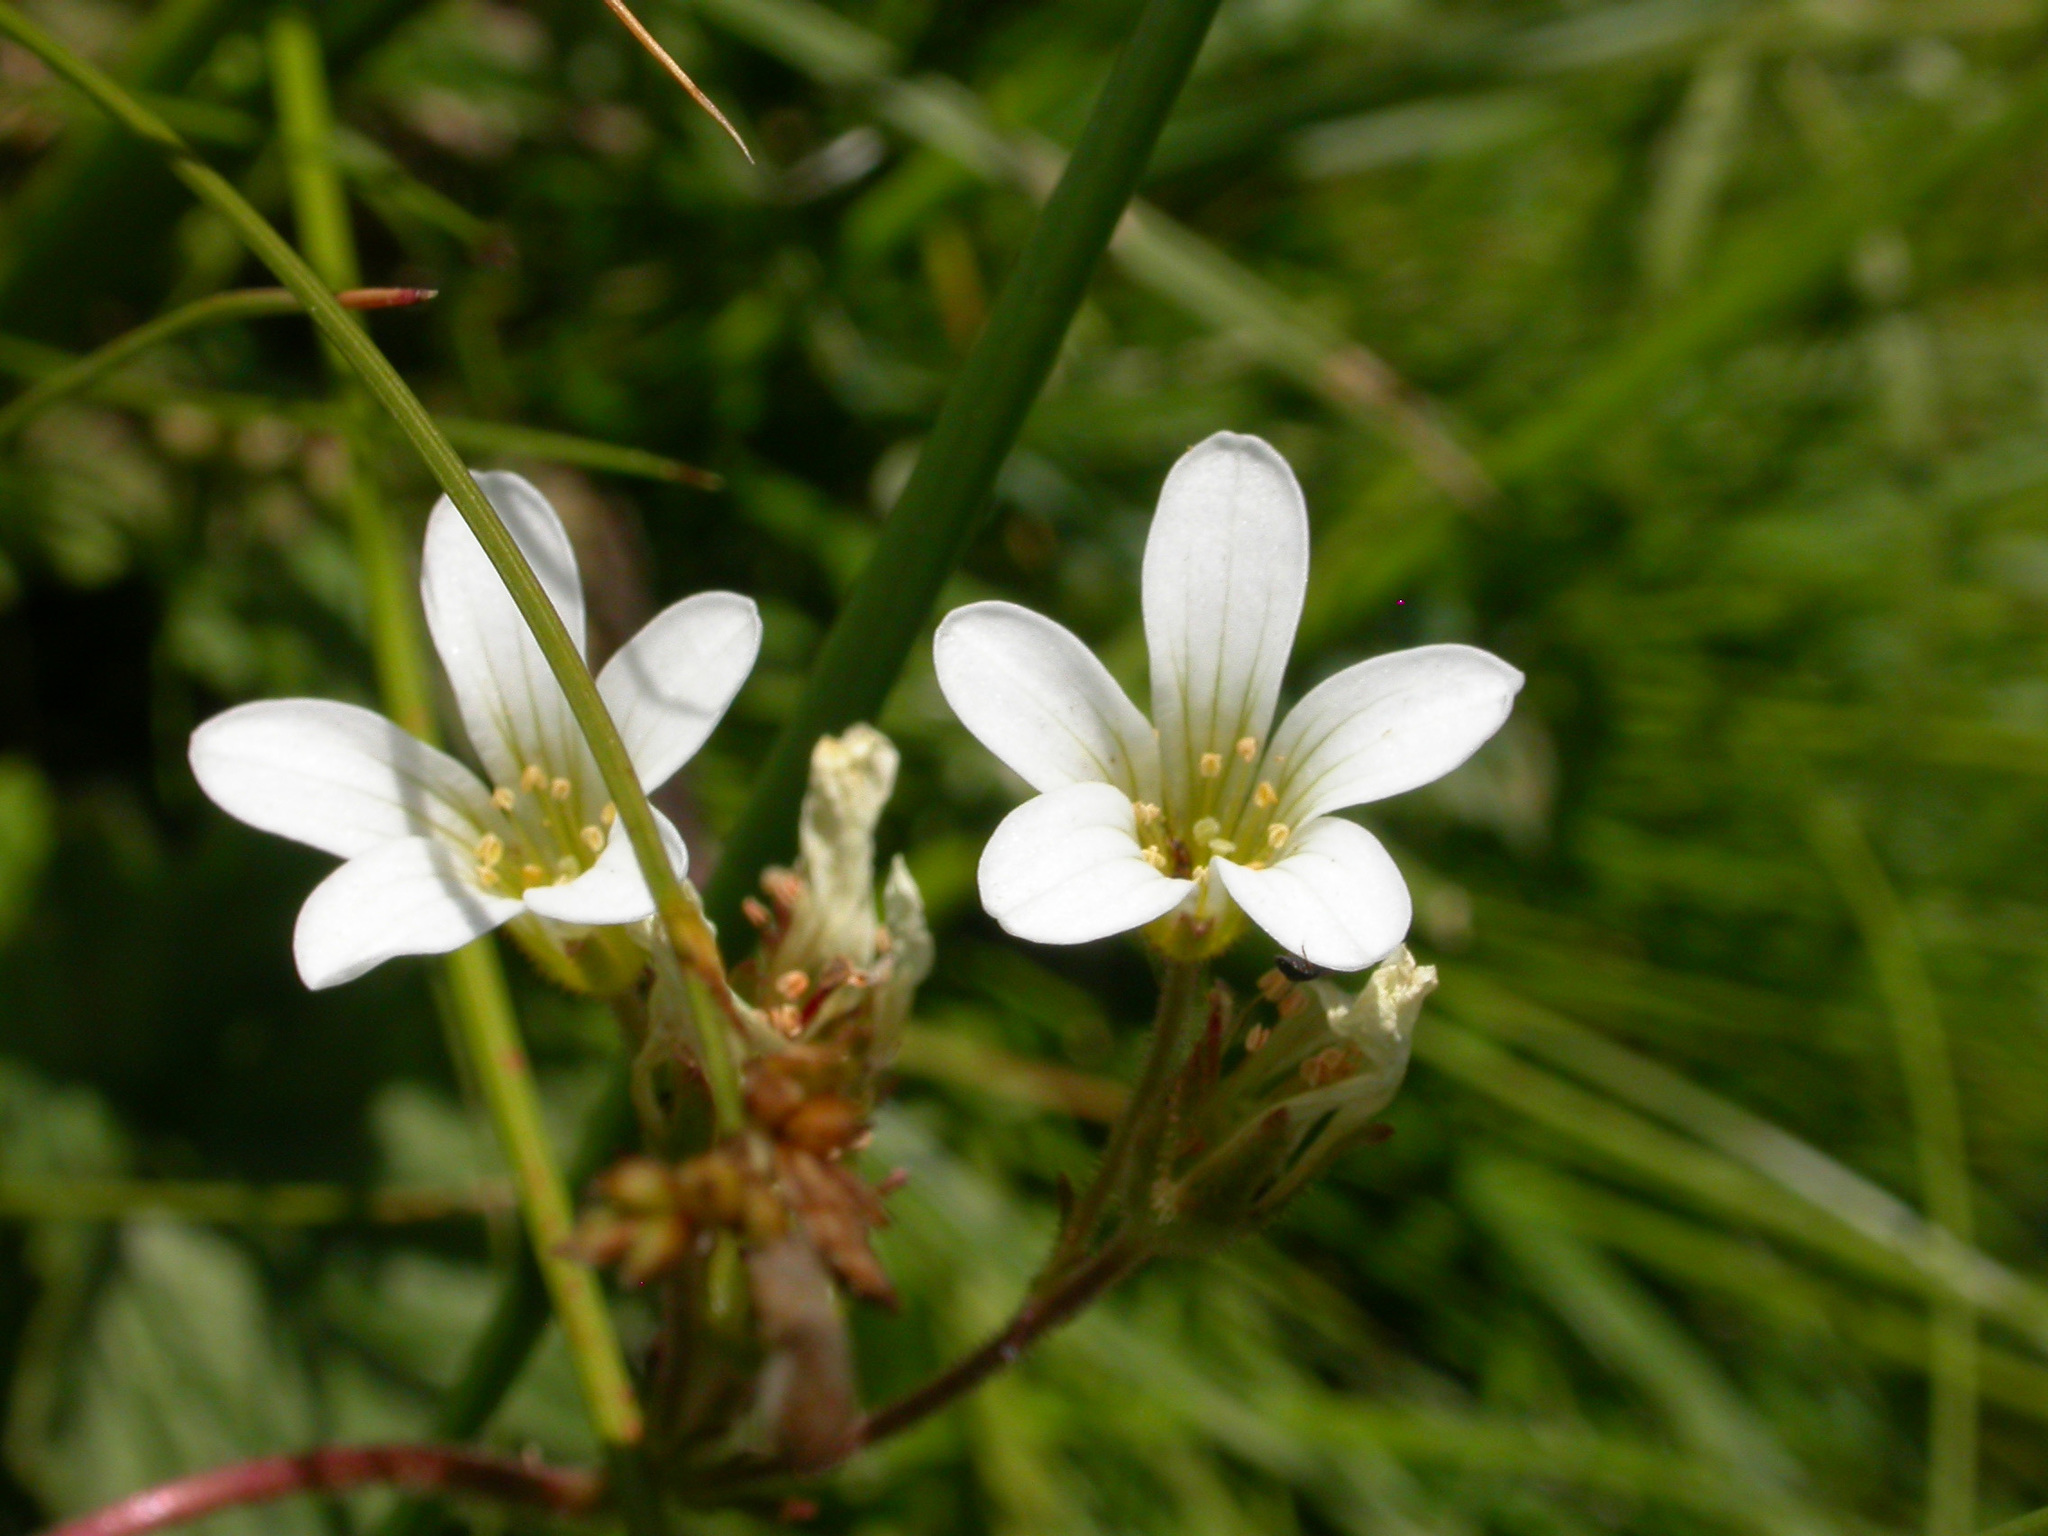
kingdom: Plantae
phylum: Tracheophyta
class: Magnoliopsida
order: Saxifragales
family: Saxifragaceae
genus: Saxifraga
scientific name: Saxifraga granulata
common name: Meadow saxifrage
